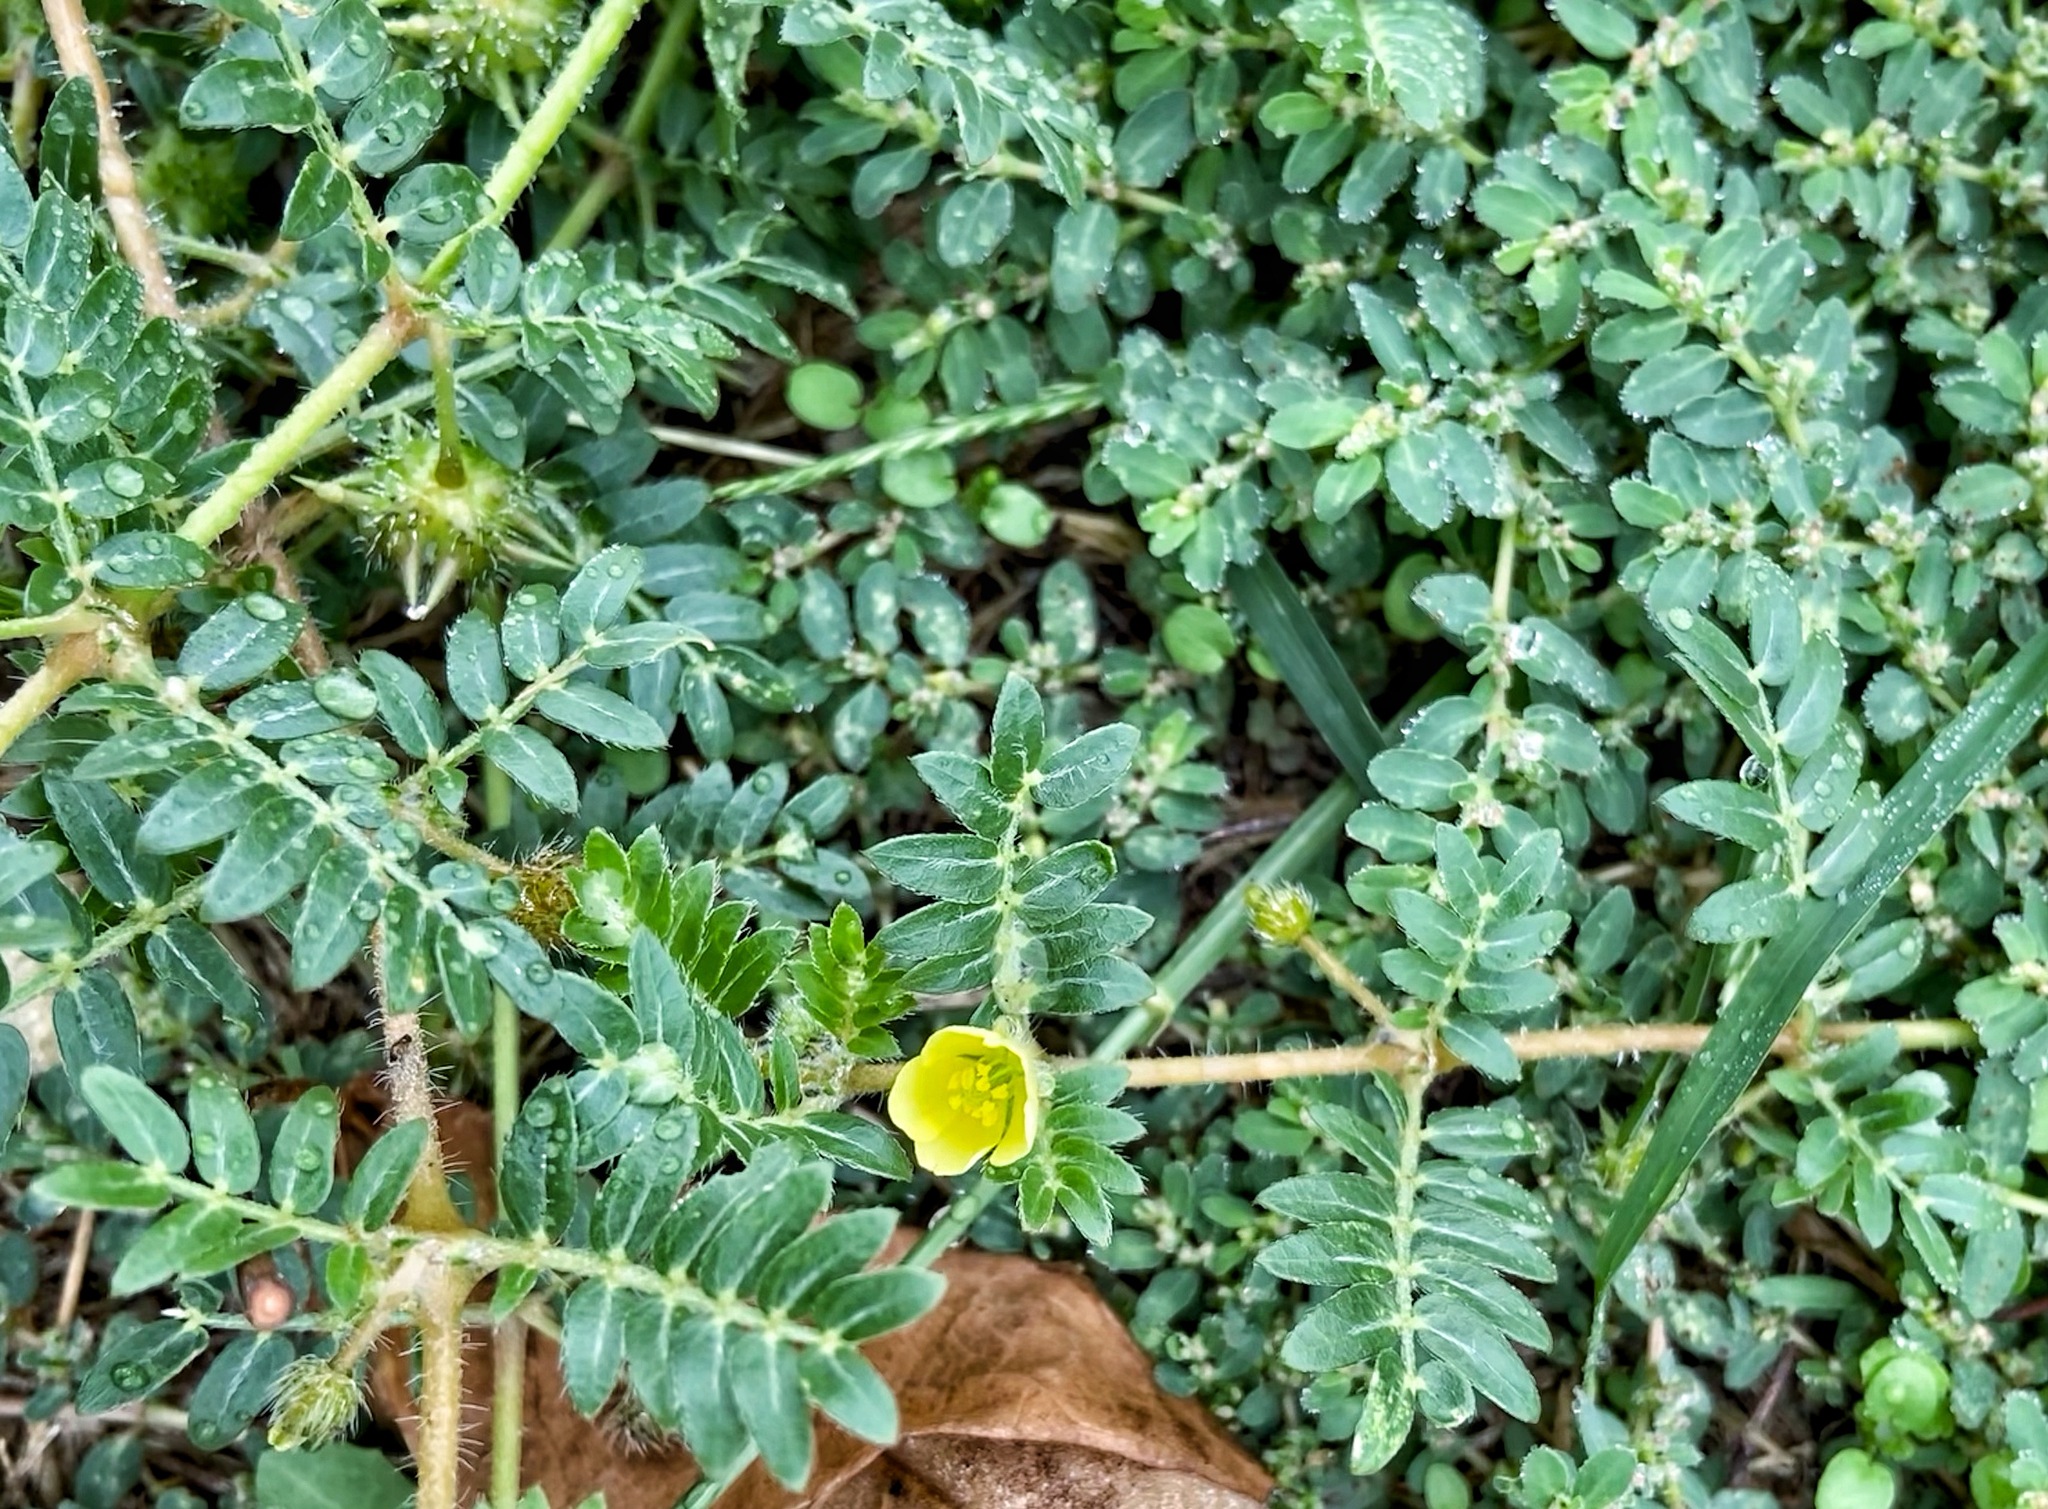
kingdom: Plantae
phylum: Tracheophyta
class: Magnoliopsida
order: Zygophyllales
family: Zygophyllaceae
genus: Tribulus
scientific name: Tribulus terrestris
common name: Puncturevine
